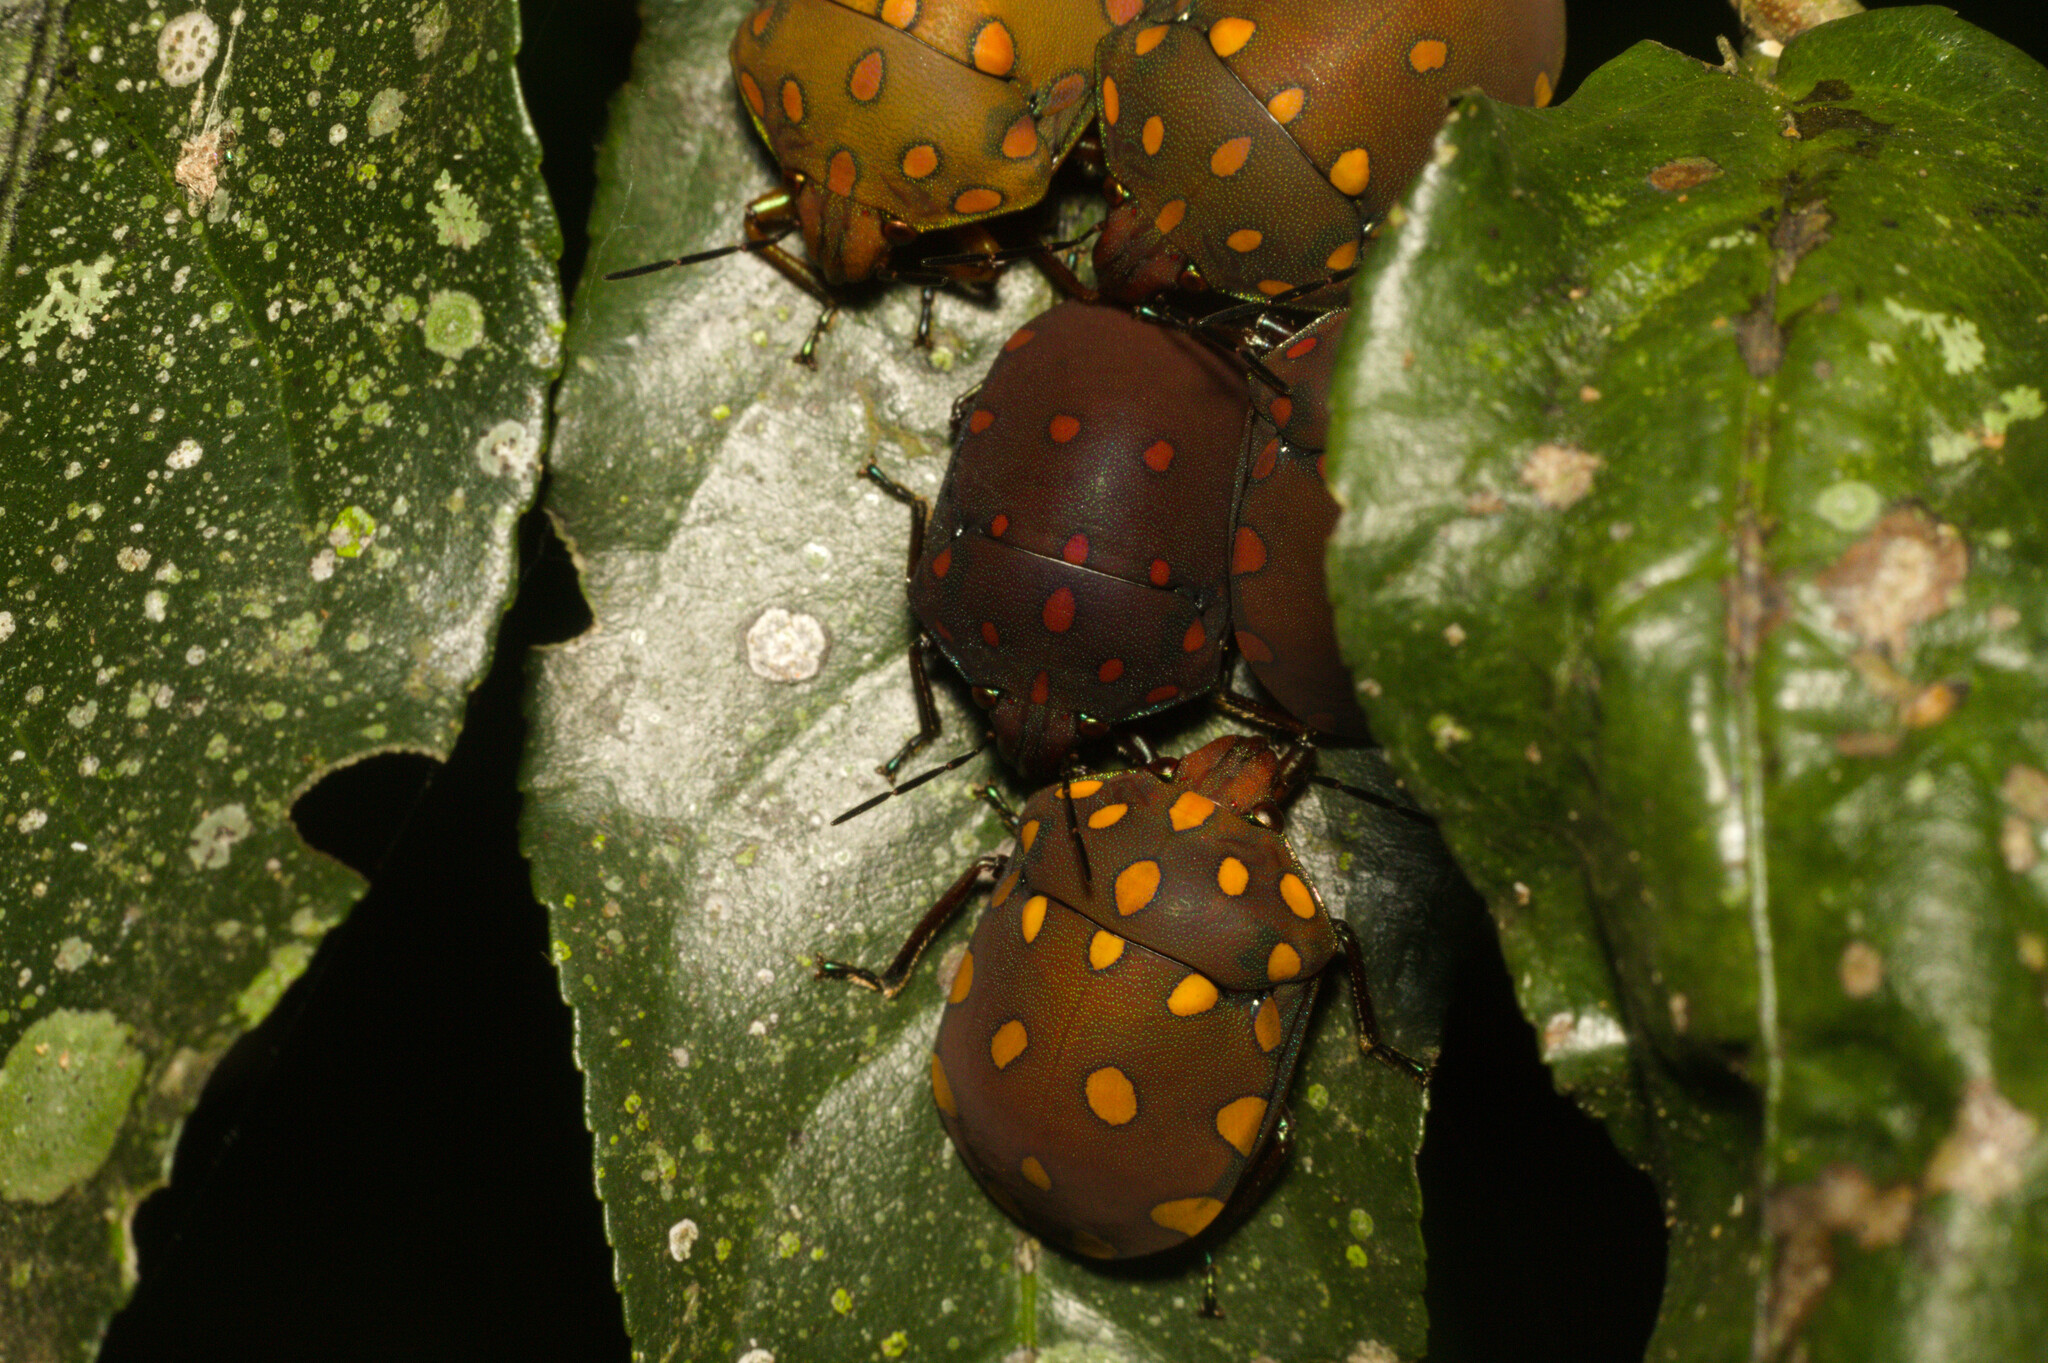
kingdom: Animalia
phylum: Arthropoda
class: Insecta
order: Hemiptera
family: Scutelleridae
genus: Pachycoris
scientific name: Pachycoris torridus
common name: Torrid jewel bug
